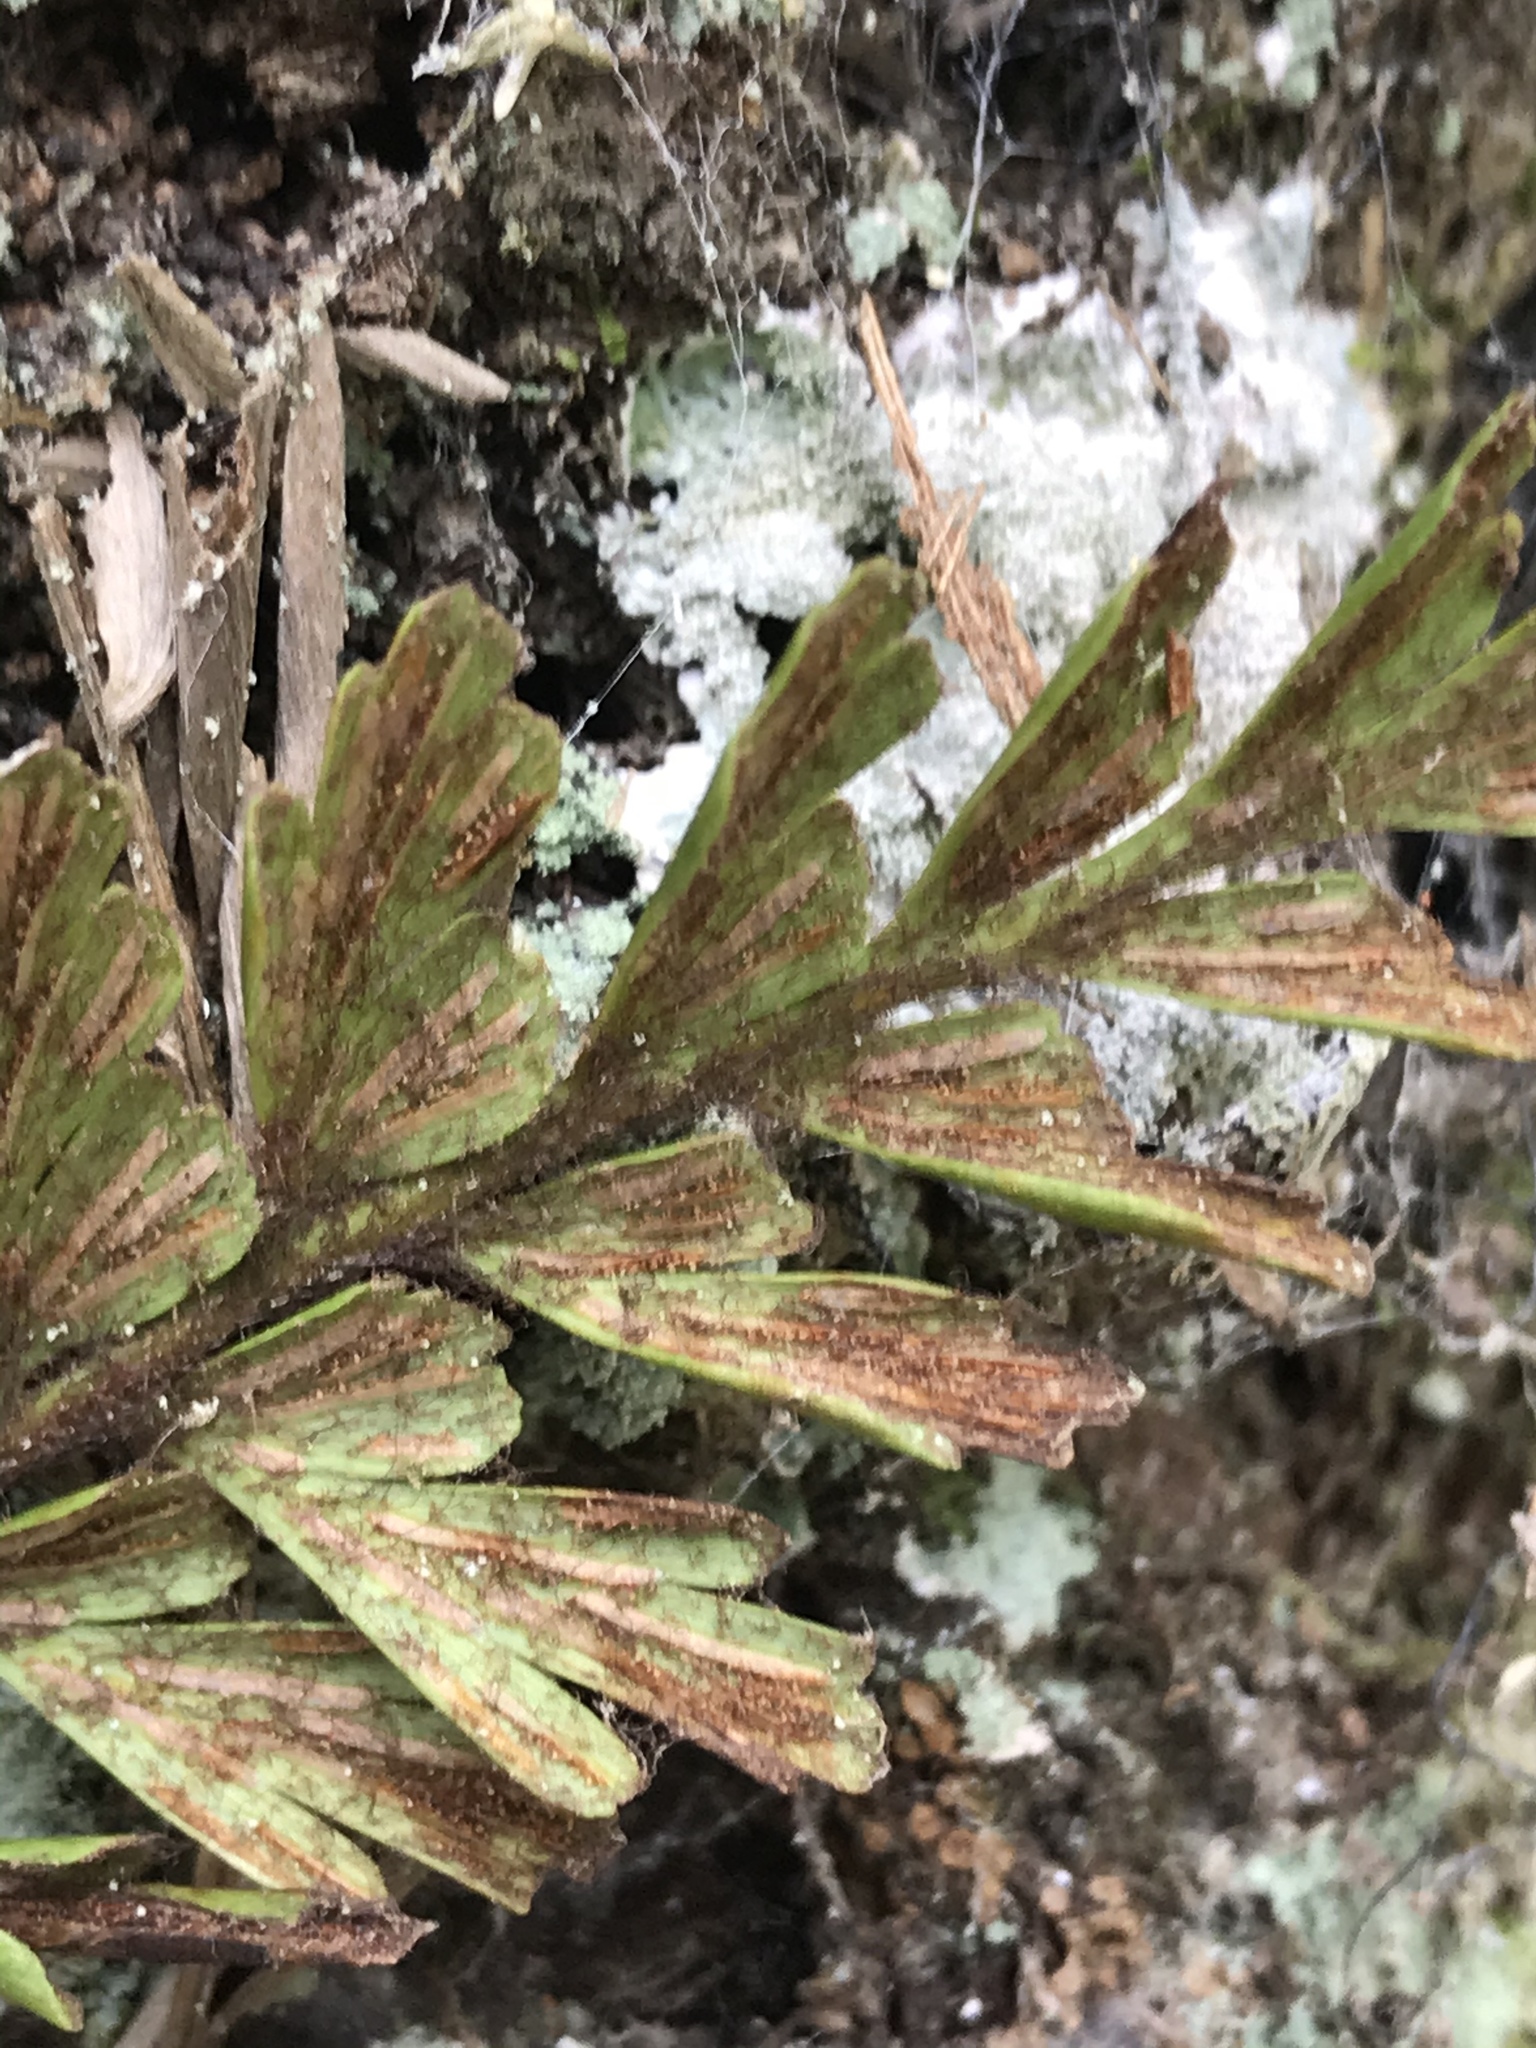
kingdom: Plantae
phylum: Tracheophyta
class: Polypodiopsida
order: Polypodiales
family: Aspleniaceae
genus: Asplenium
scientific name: Asplenium praemorsum
